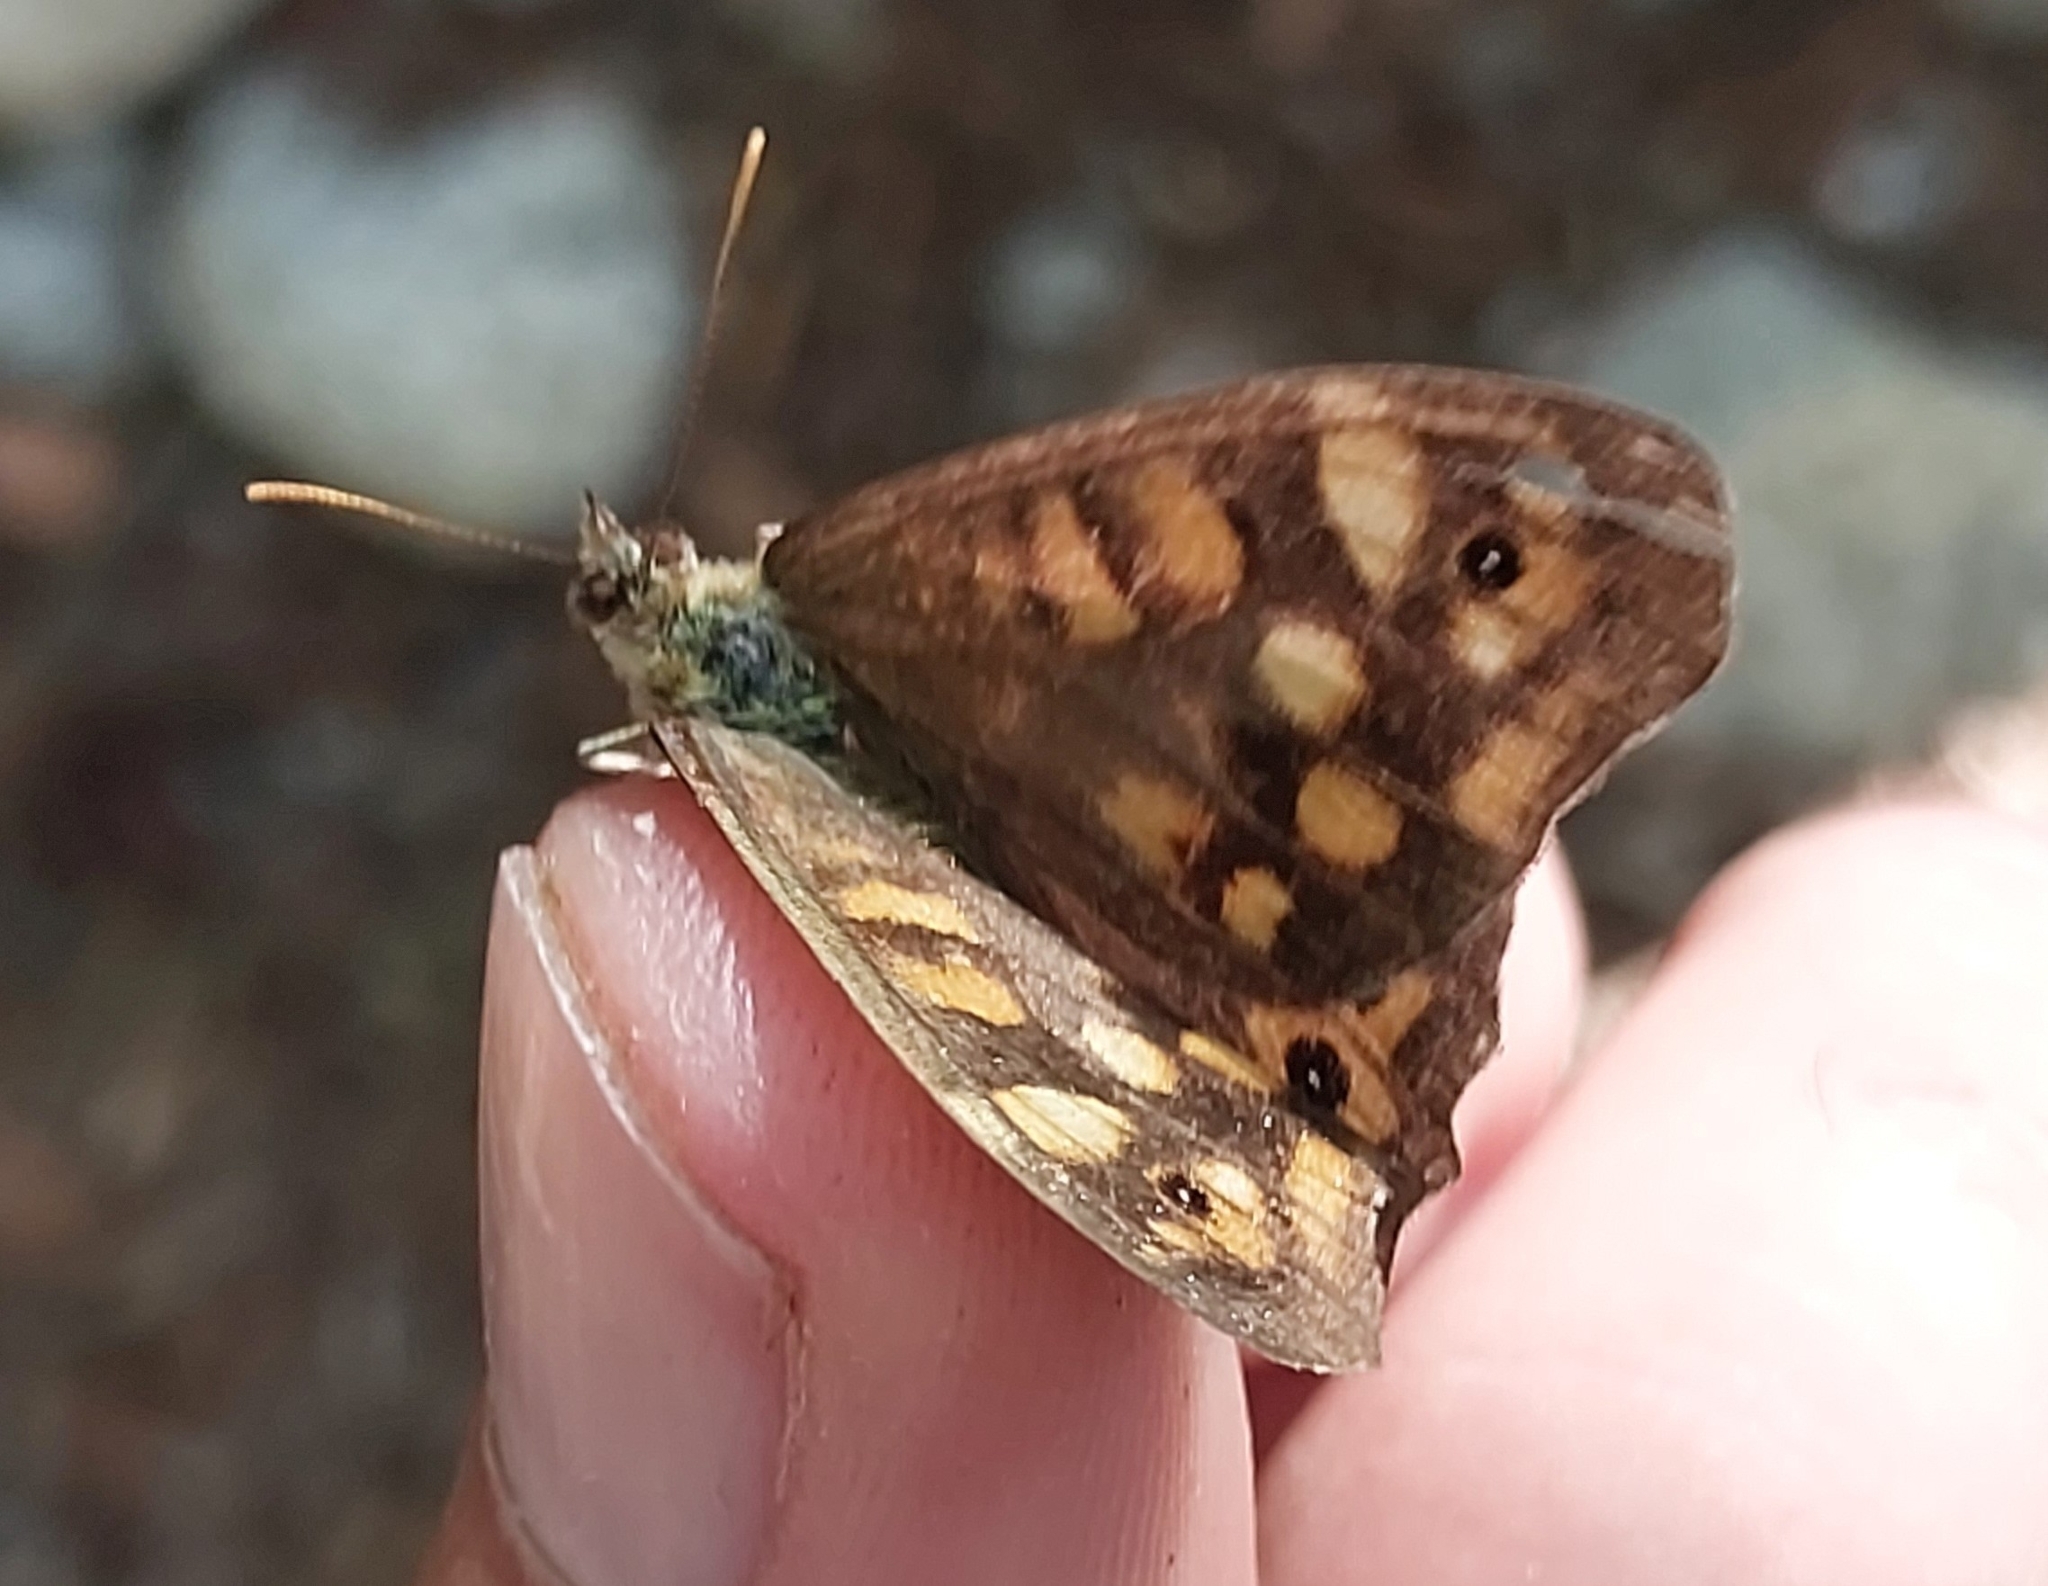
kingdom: Animalia
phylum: Arthropoda
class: Insecta
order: Lepidoptera
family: Nymphalidae
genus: Pararge
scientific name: Pararge aegeria
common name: Speckled wood
